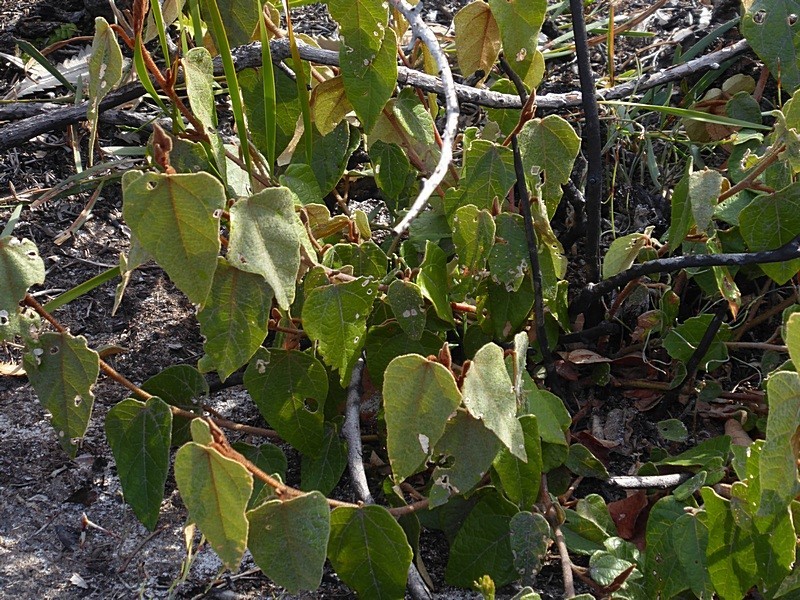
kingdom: Plantae
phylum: Tracheophyta
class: Magnoliopsida
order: Malvales
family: Malvaceae
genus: Lasiopetalum
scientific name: Lasiopetalum macrophyllum
